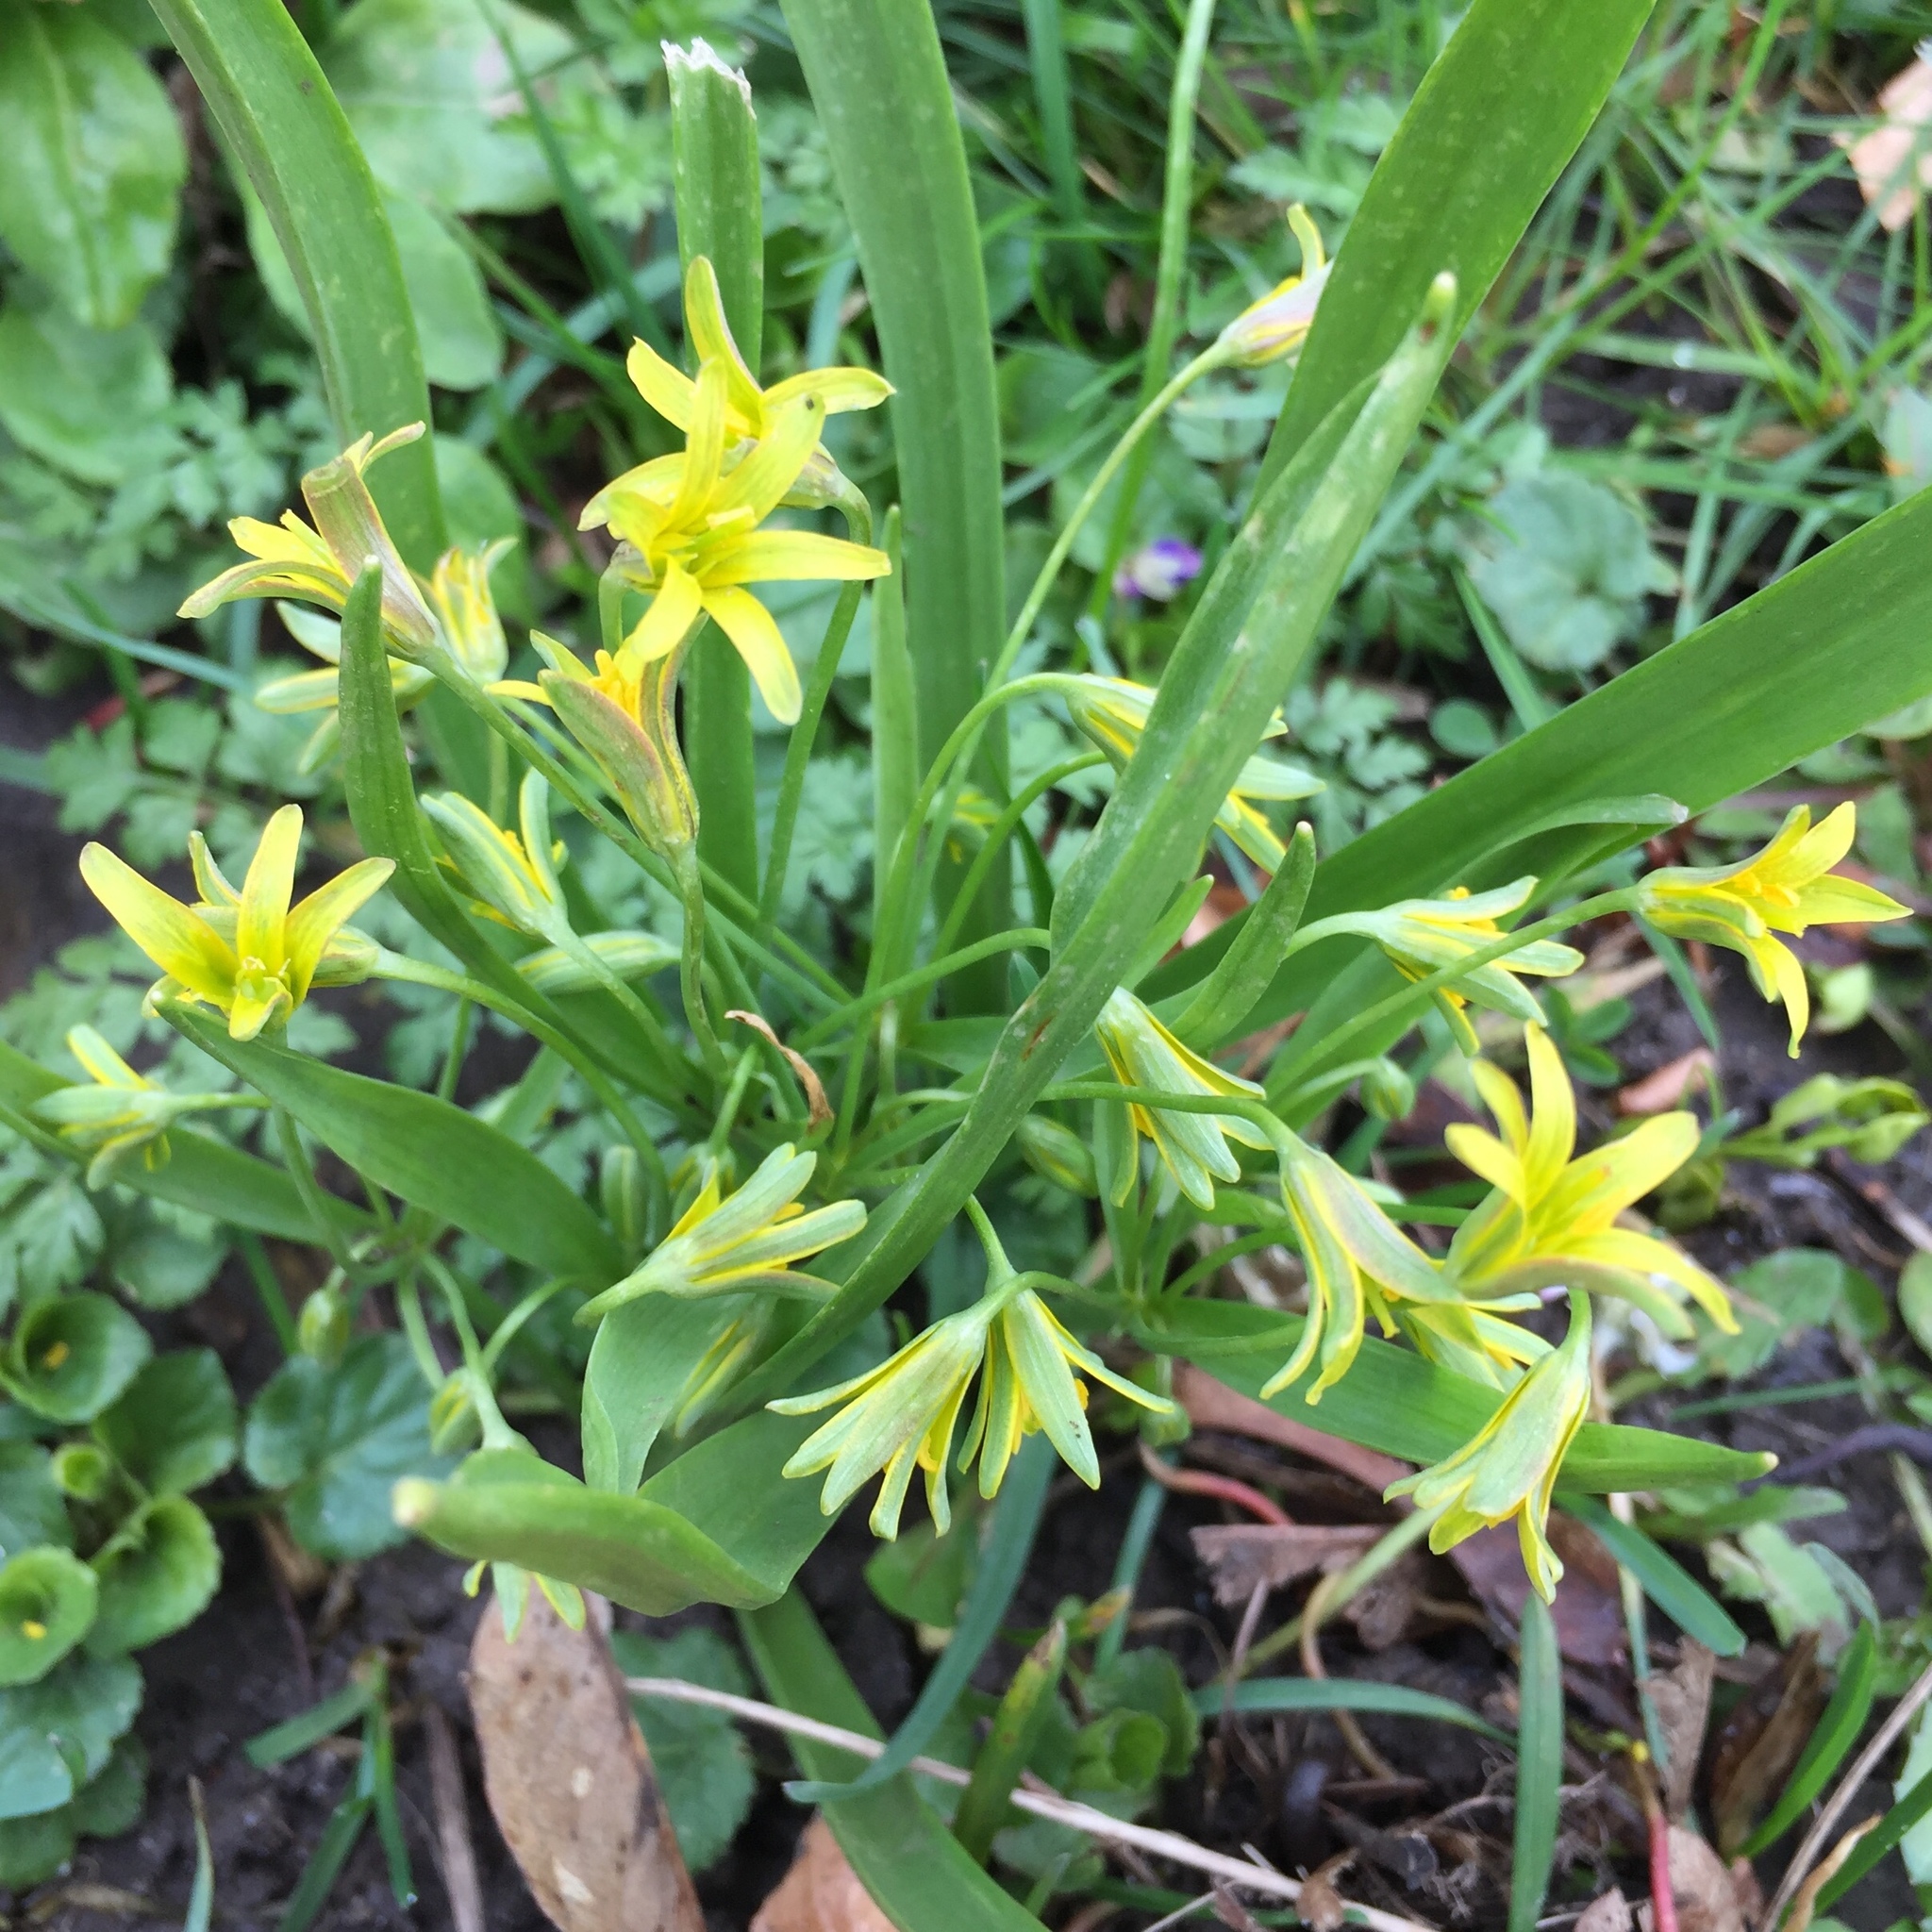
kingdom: Plantae
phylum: Tracheophyta
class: Liliopsida
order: Liliales
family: Liliaceae
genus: Gagea
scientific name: Gagea lutea
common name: Yellow star-of-bethlehem
